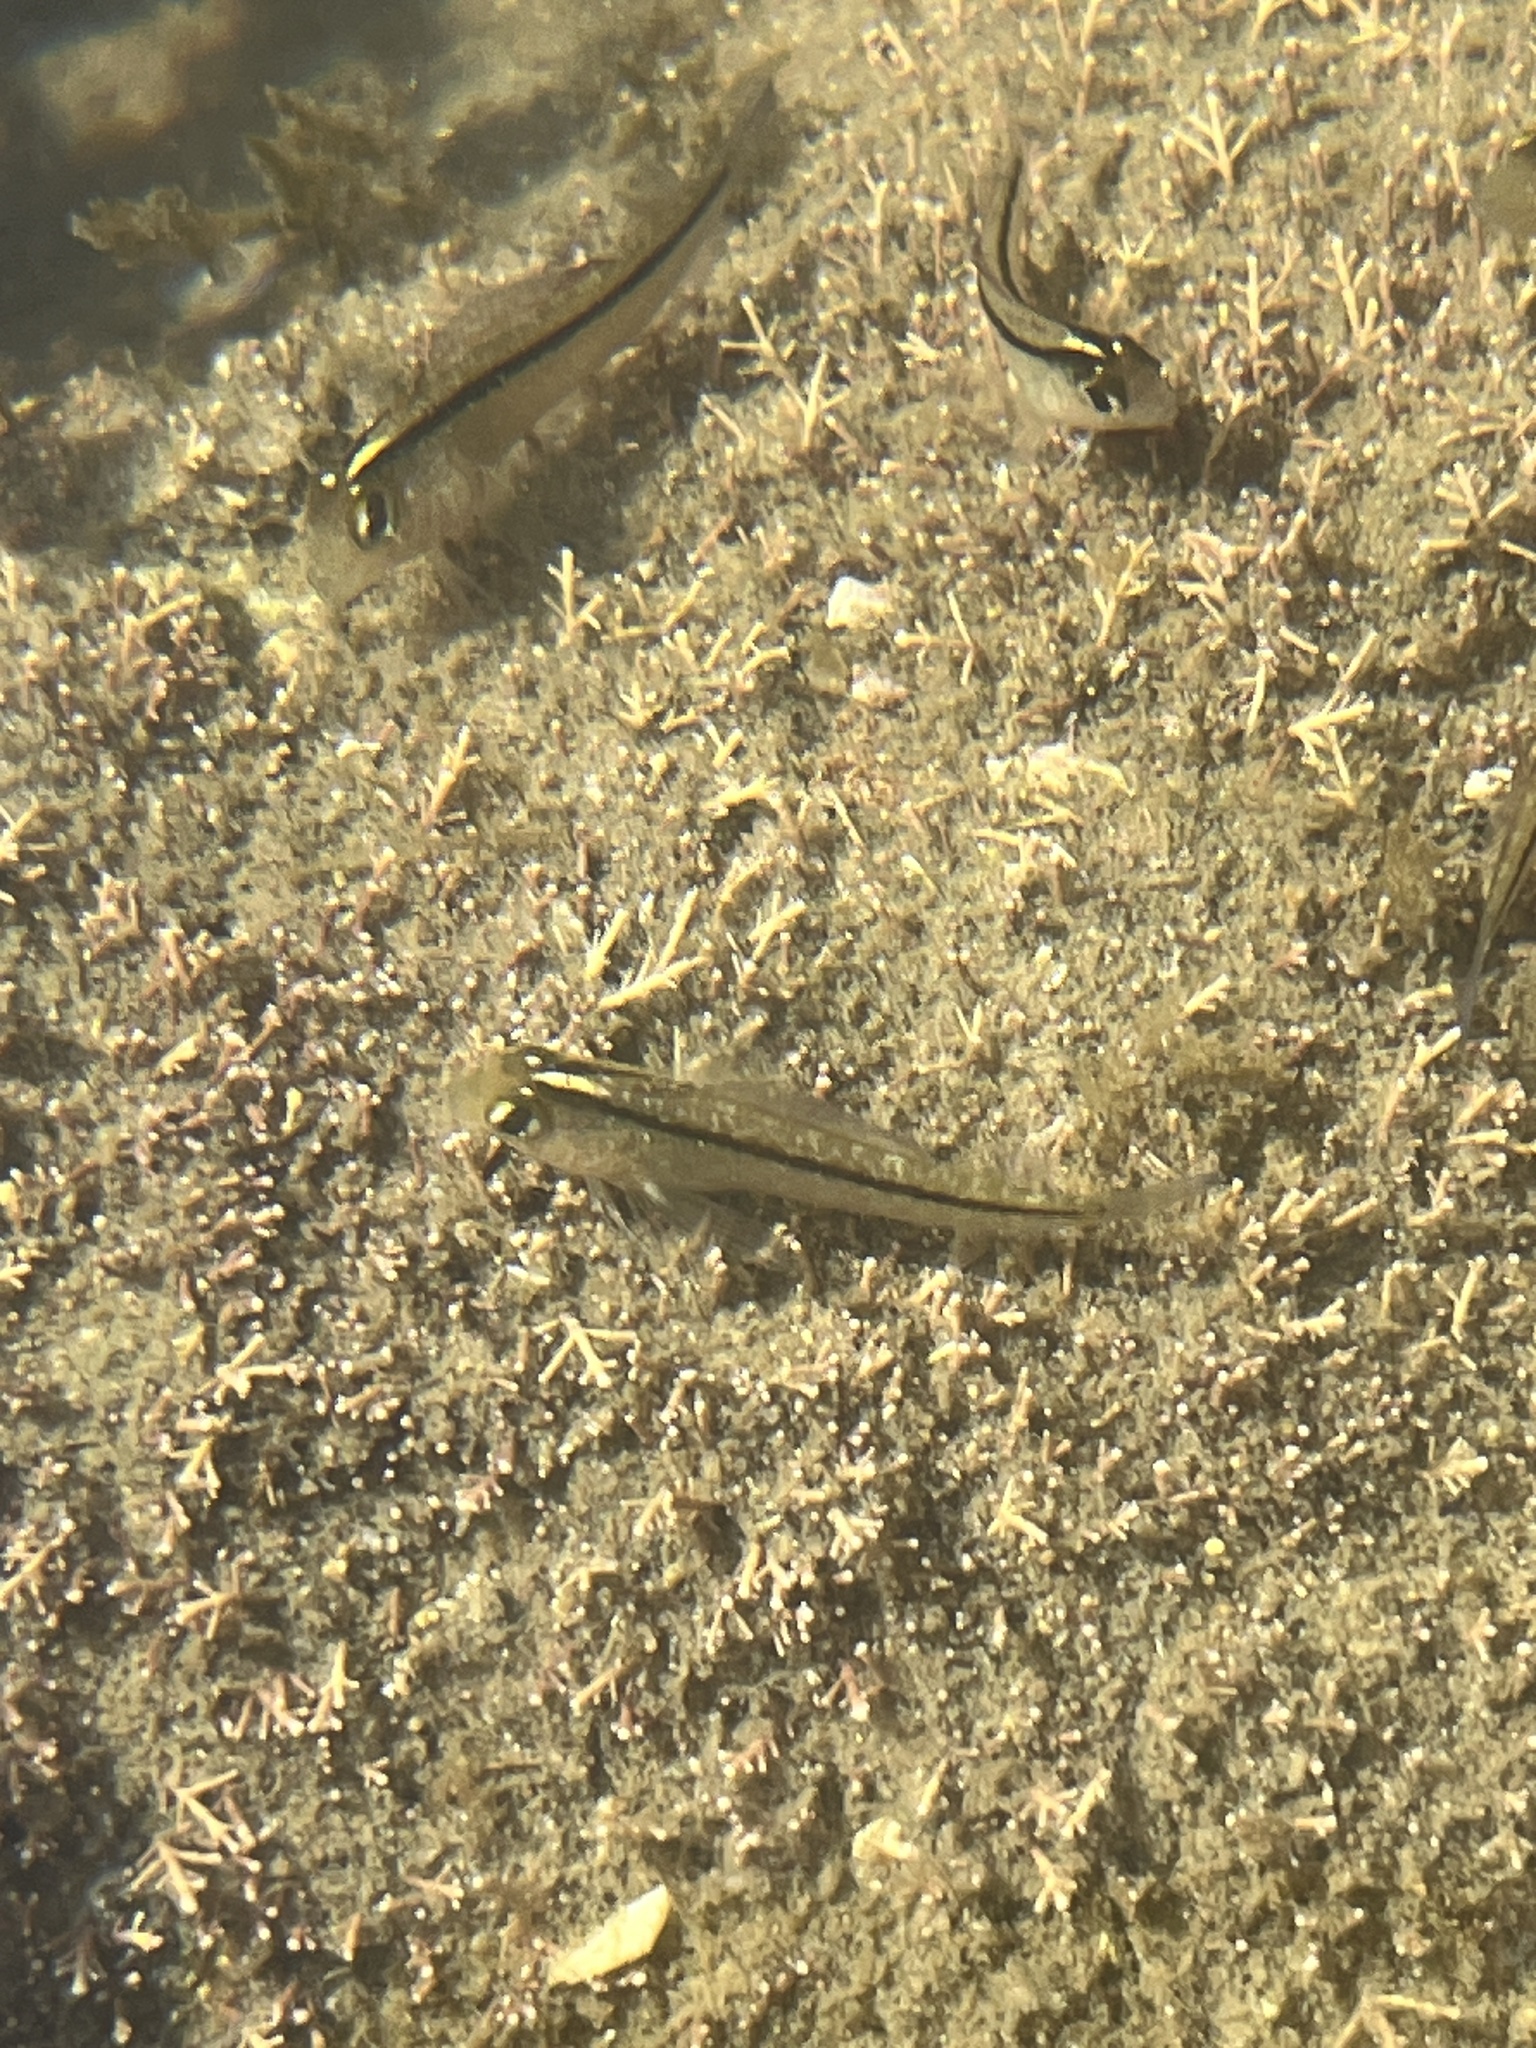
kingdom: Animalia
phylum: Chordata
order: Perciformes
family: Tripterygiidae
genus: Forsterygion
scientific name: Forsterygion lapillum
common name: Common triplefin
